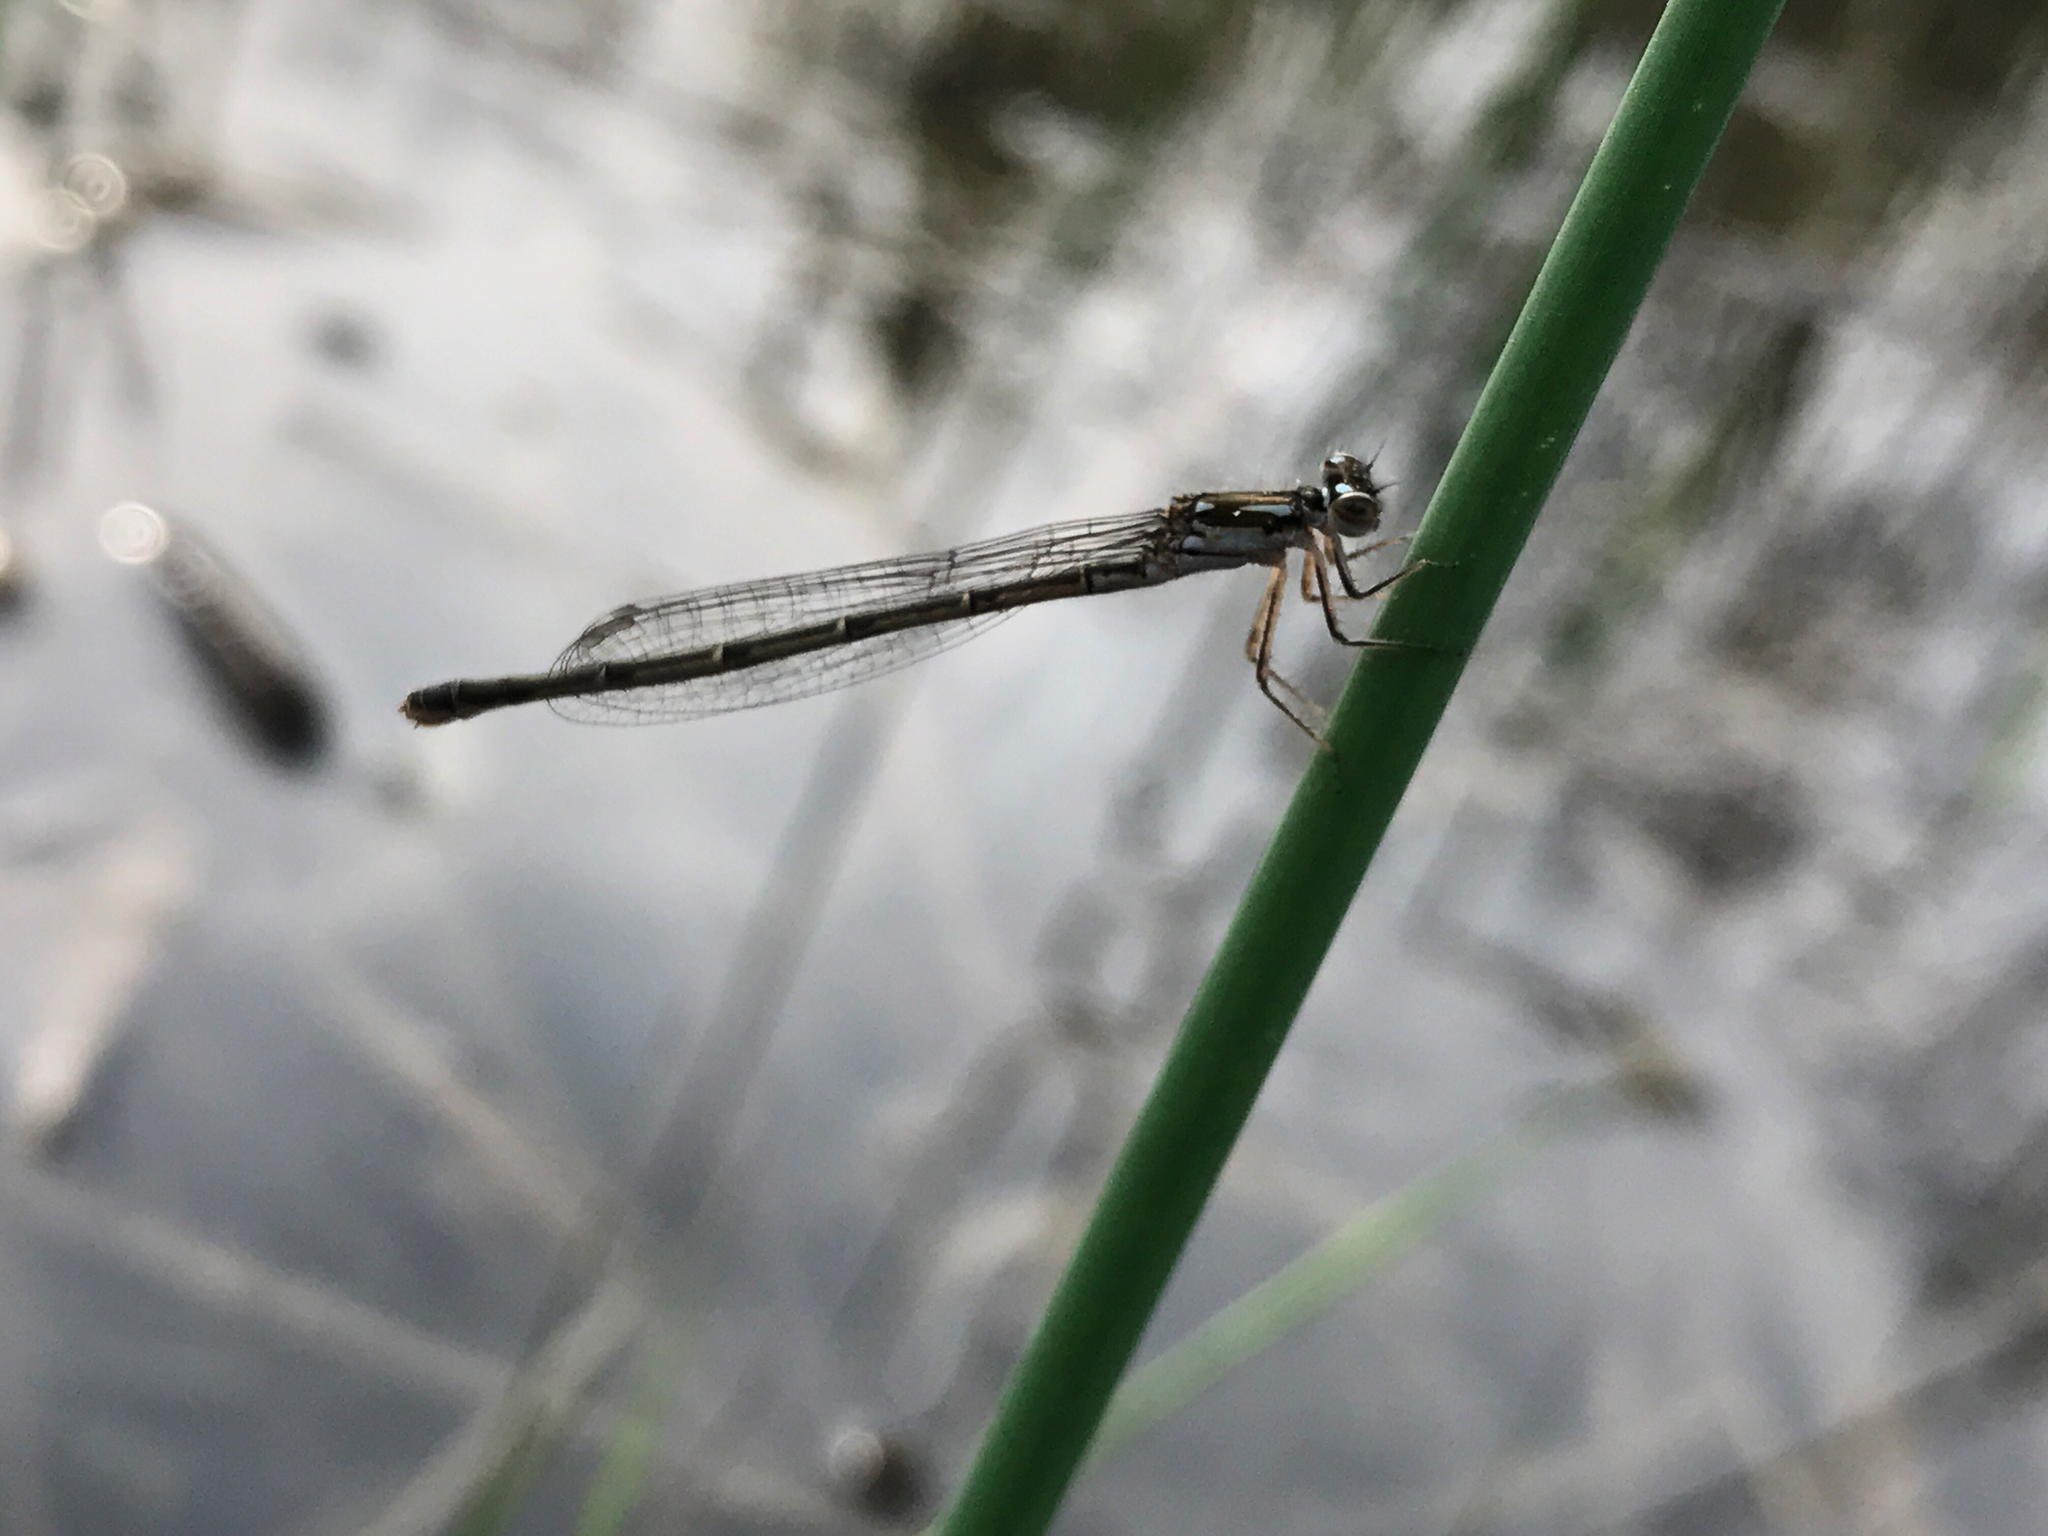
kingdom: Animalia
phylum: Arthropoda
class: Insecta
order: Odonata
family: Coenagrionidae
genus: Ischnura
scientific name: Ischnura posita
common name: Fragile forktail
